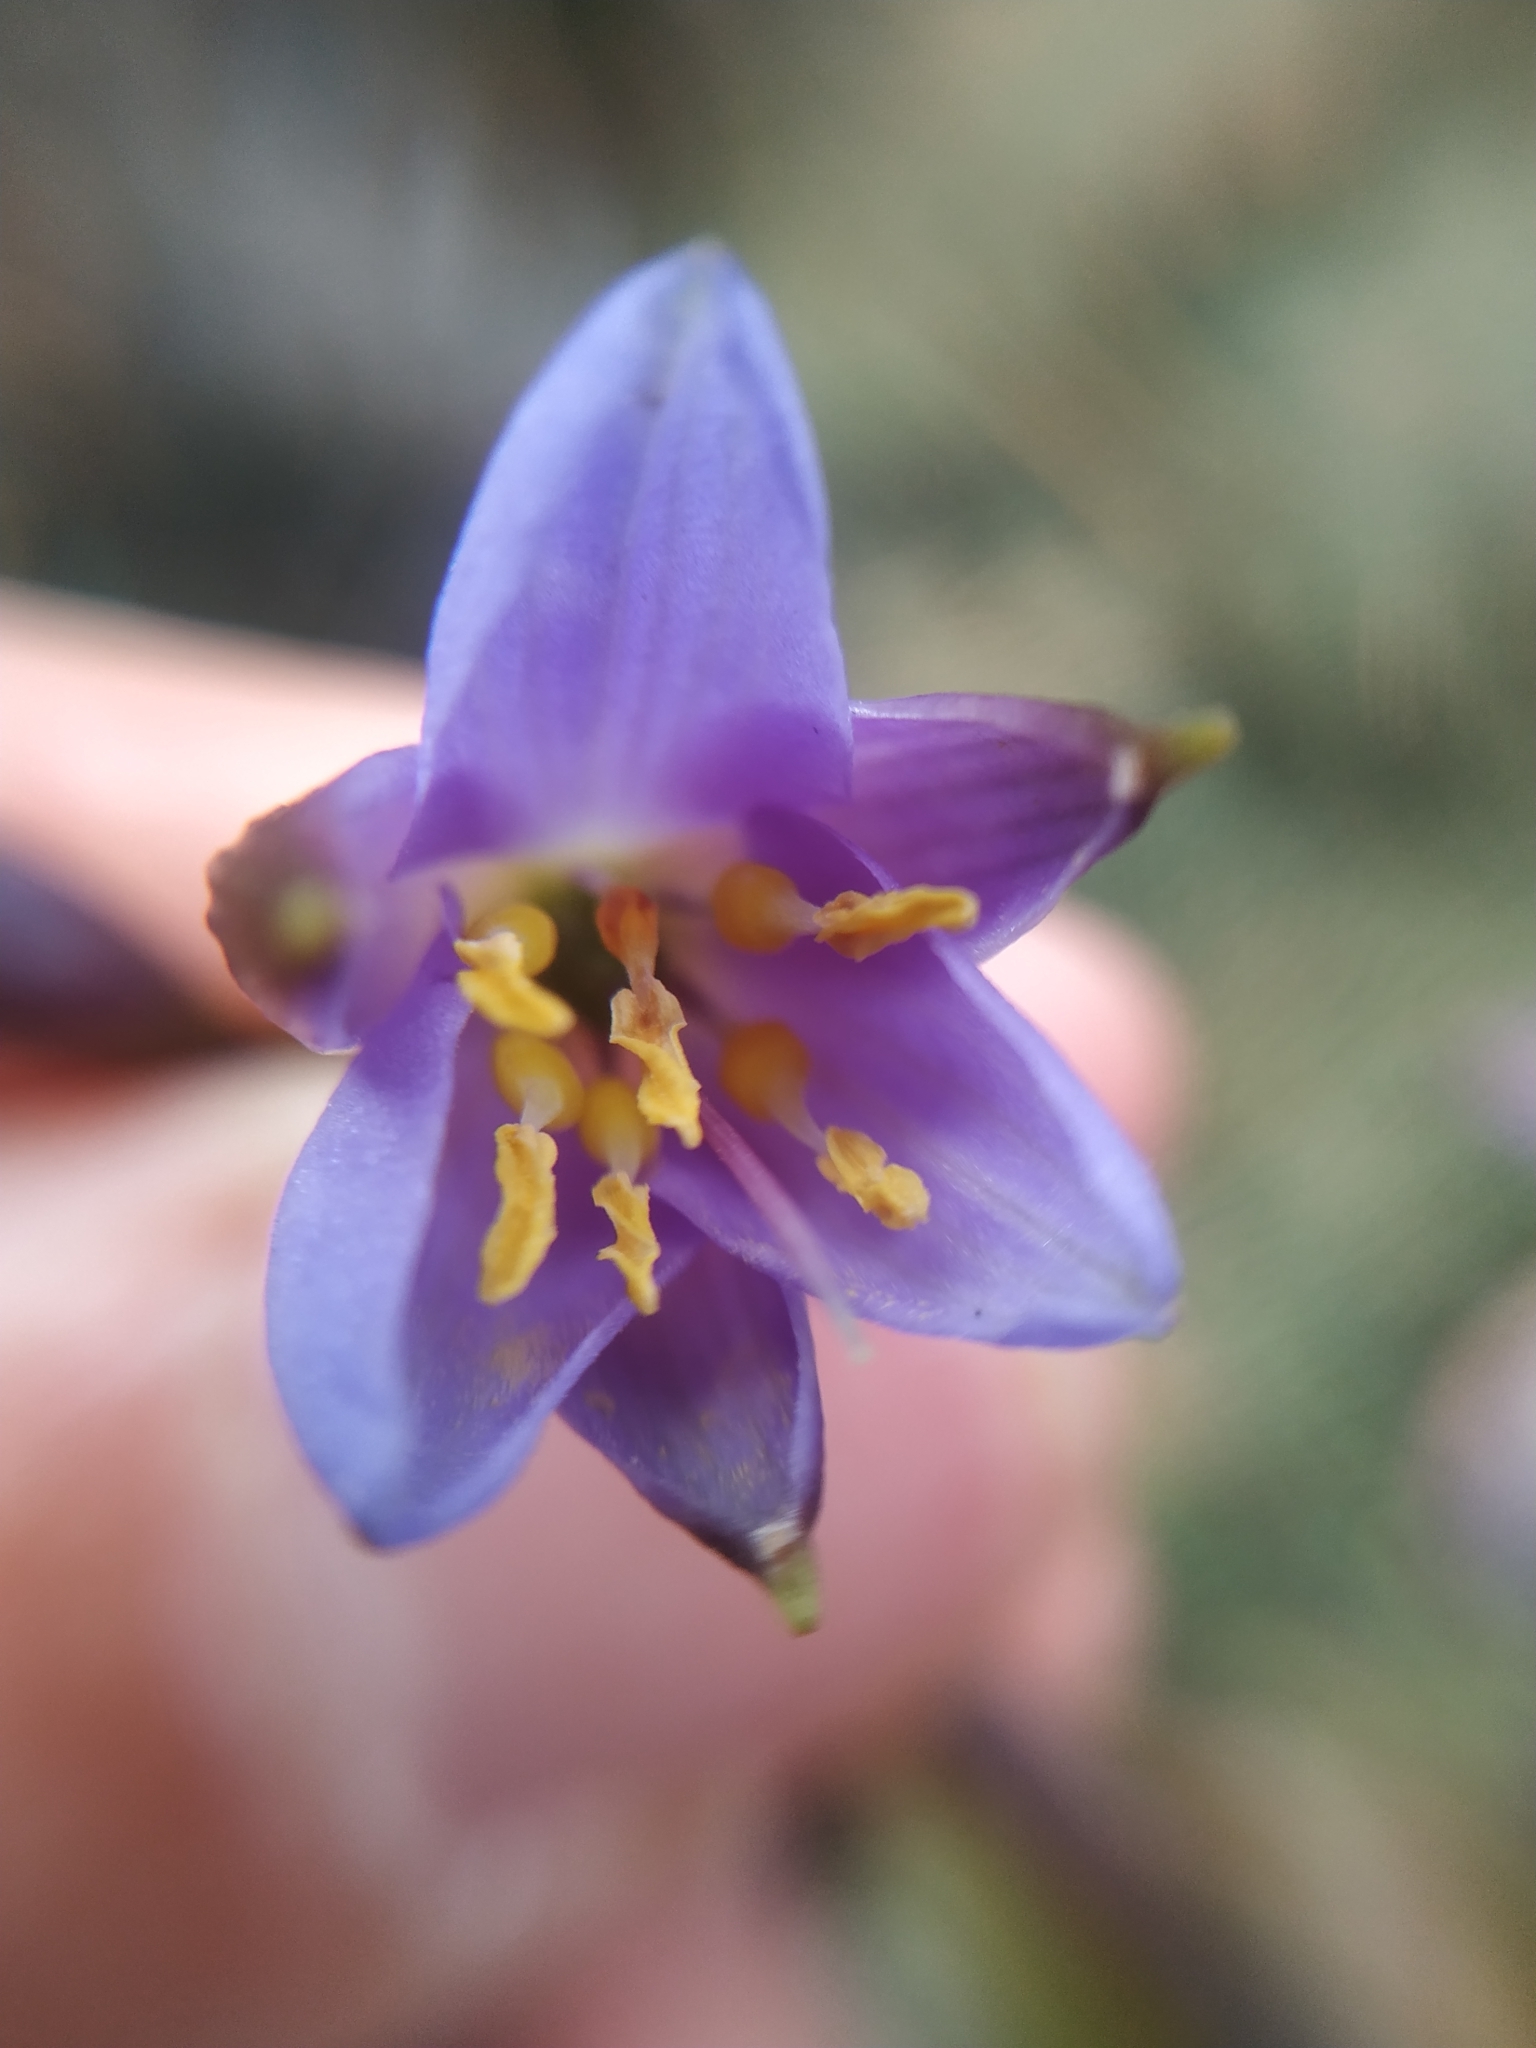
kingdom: Plantae
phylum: Tracheophyta
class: Liliopsida
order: Asparagales
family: Asphodelaceae
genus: Excremis
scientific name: Excremis coarctata
